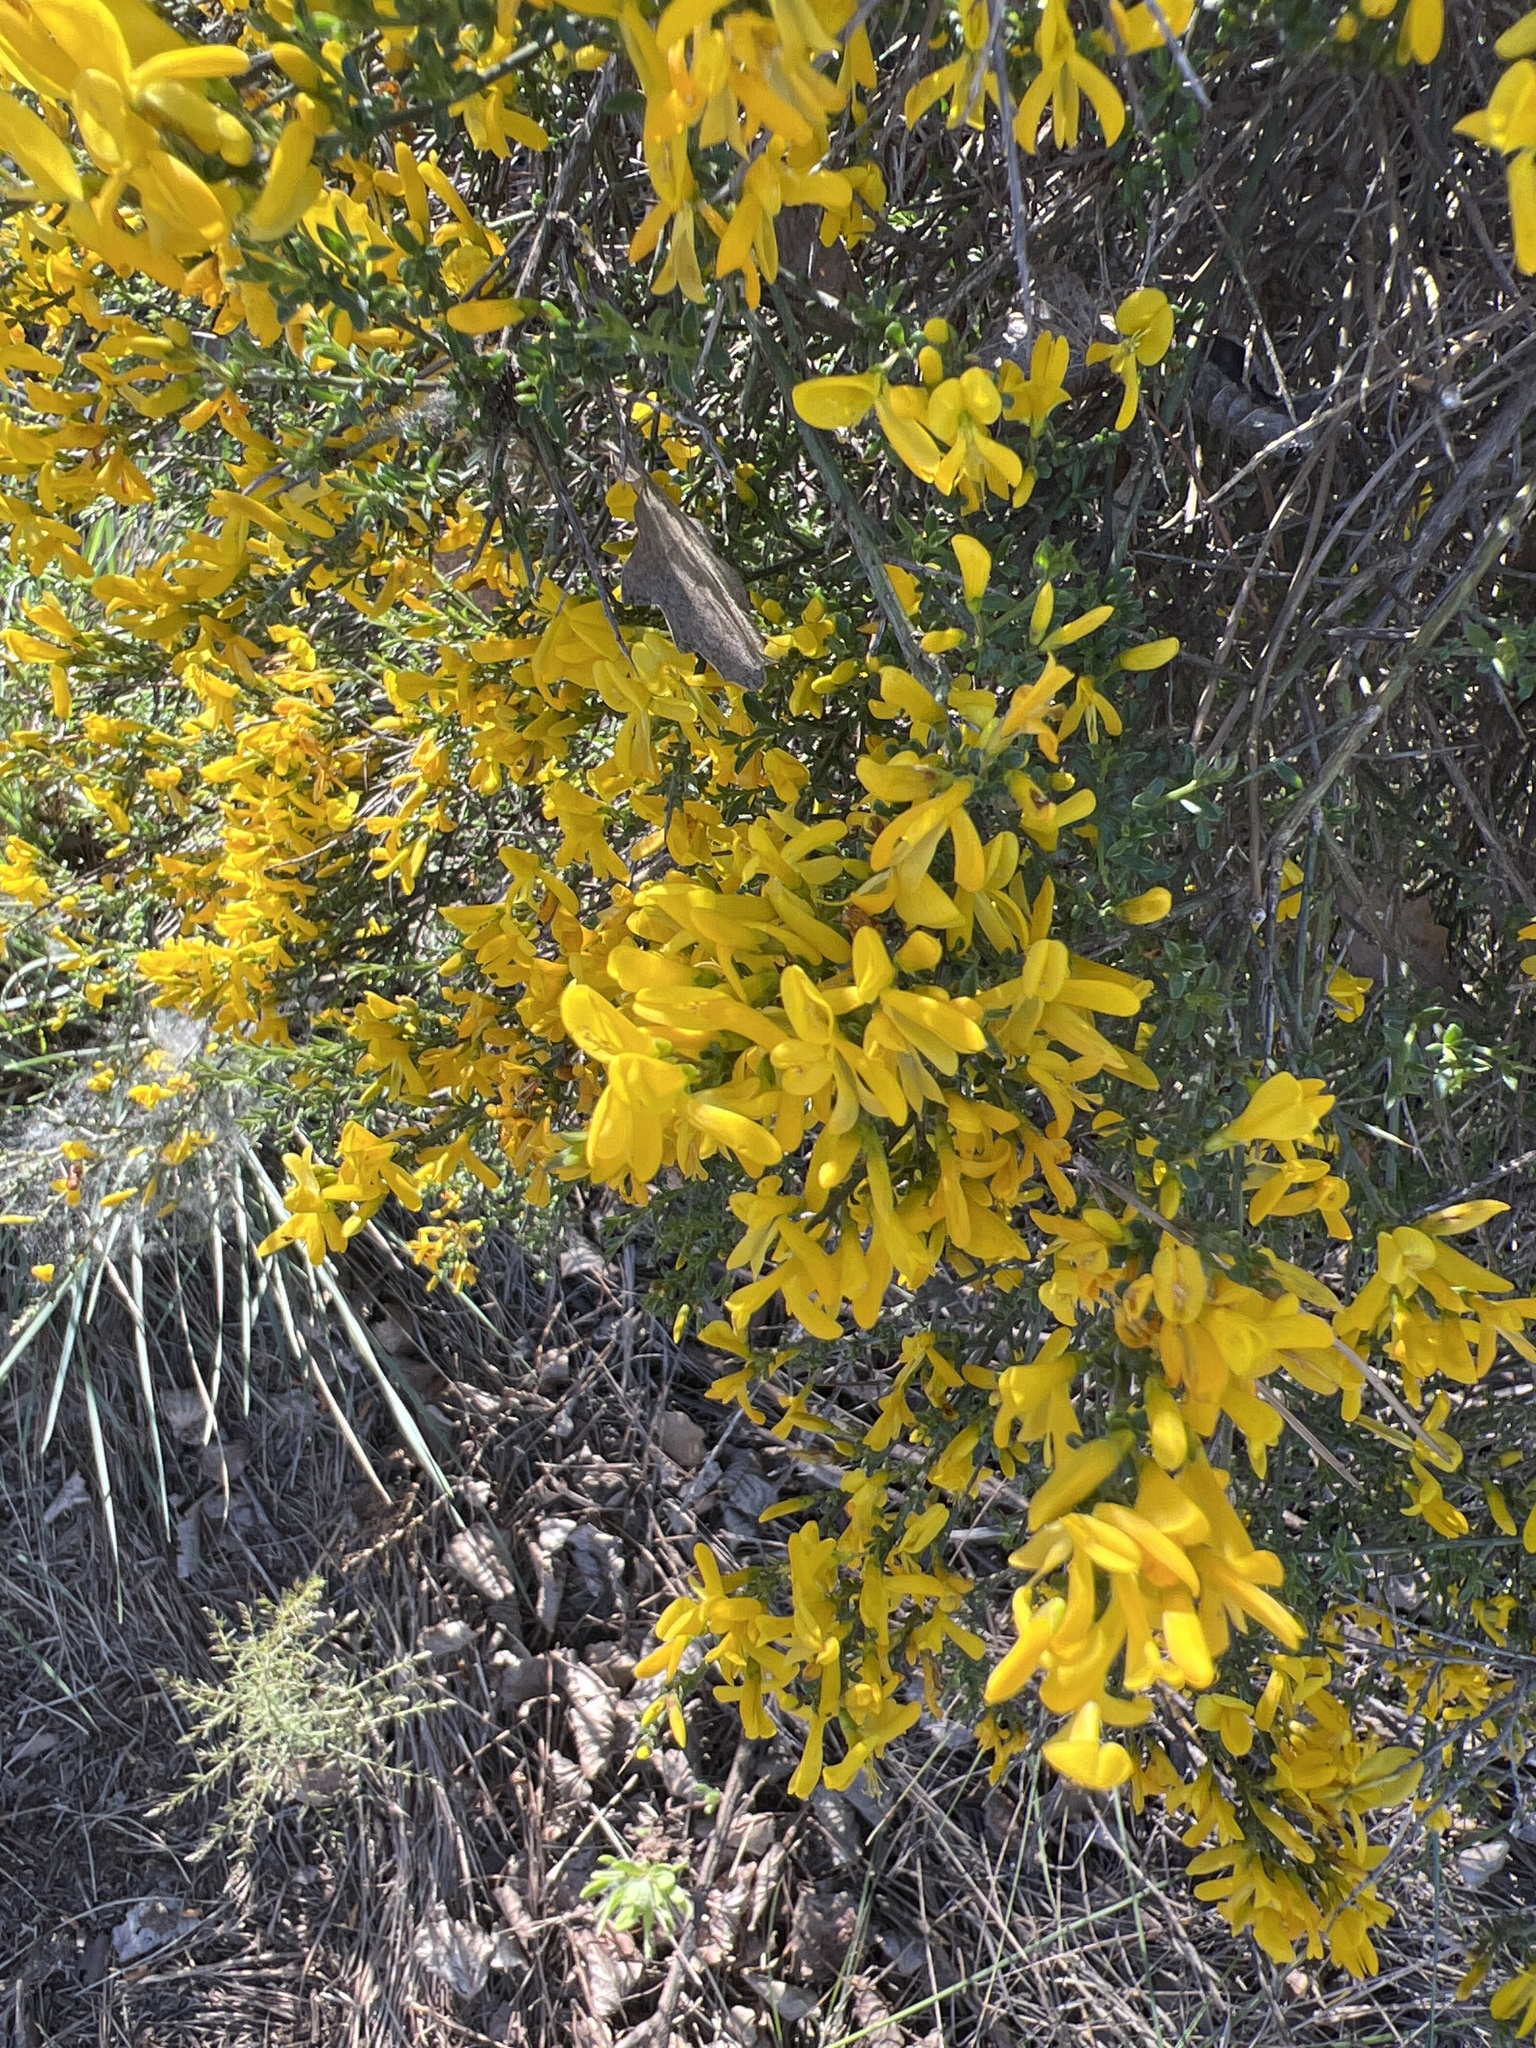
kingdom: Plantae
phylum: Tracheophyta
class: Magnoliopsida
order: Fabales
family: Fabaceae
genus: Genista
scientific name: Genista scorpius
